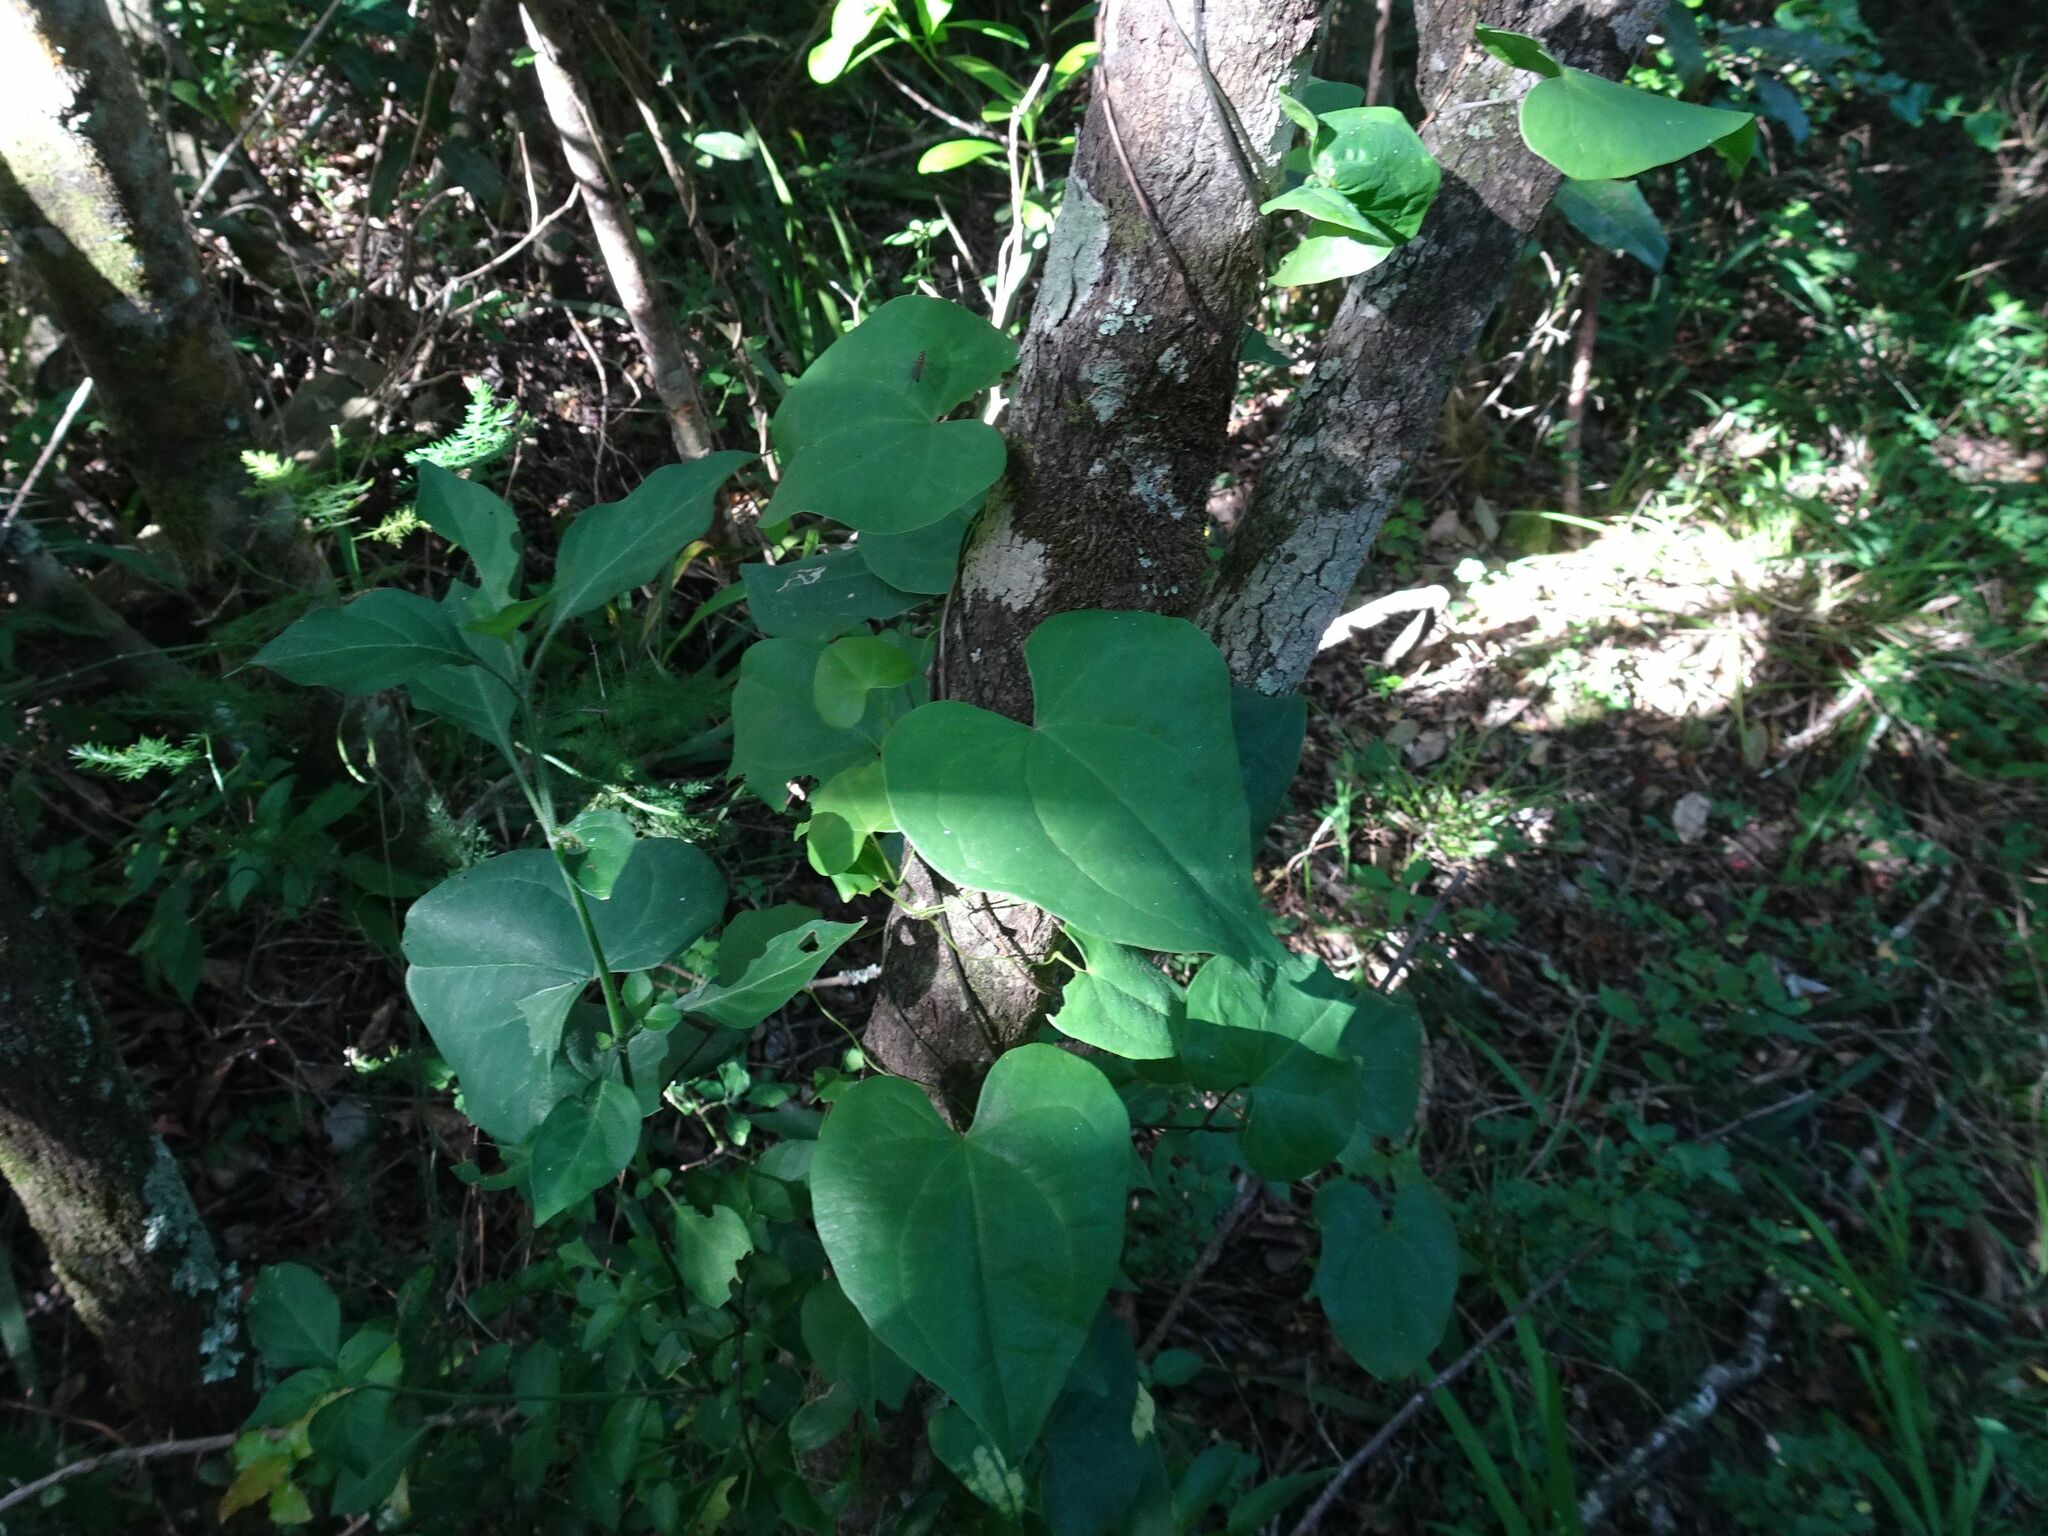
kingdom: Plantae
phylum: Tracheophyta
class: Liliopsida
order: Dioscoreales
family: Dioscoreaceae
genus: Dioscorea
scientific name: Dioscorea sylvatica
